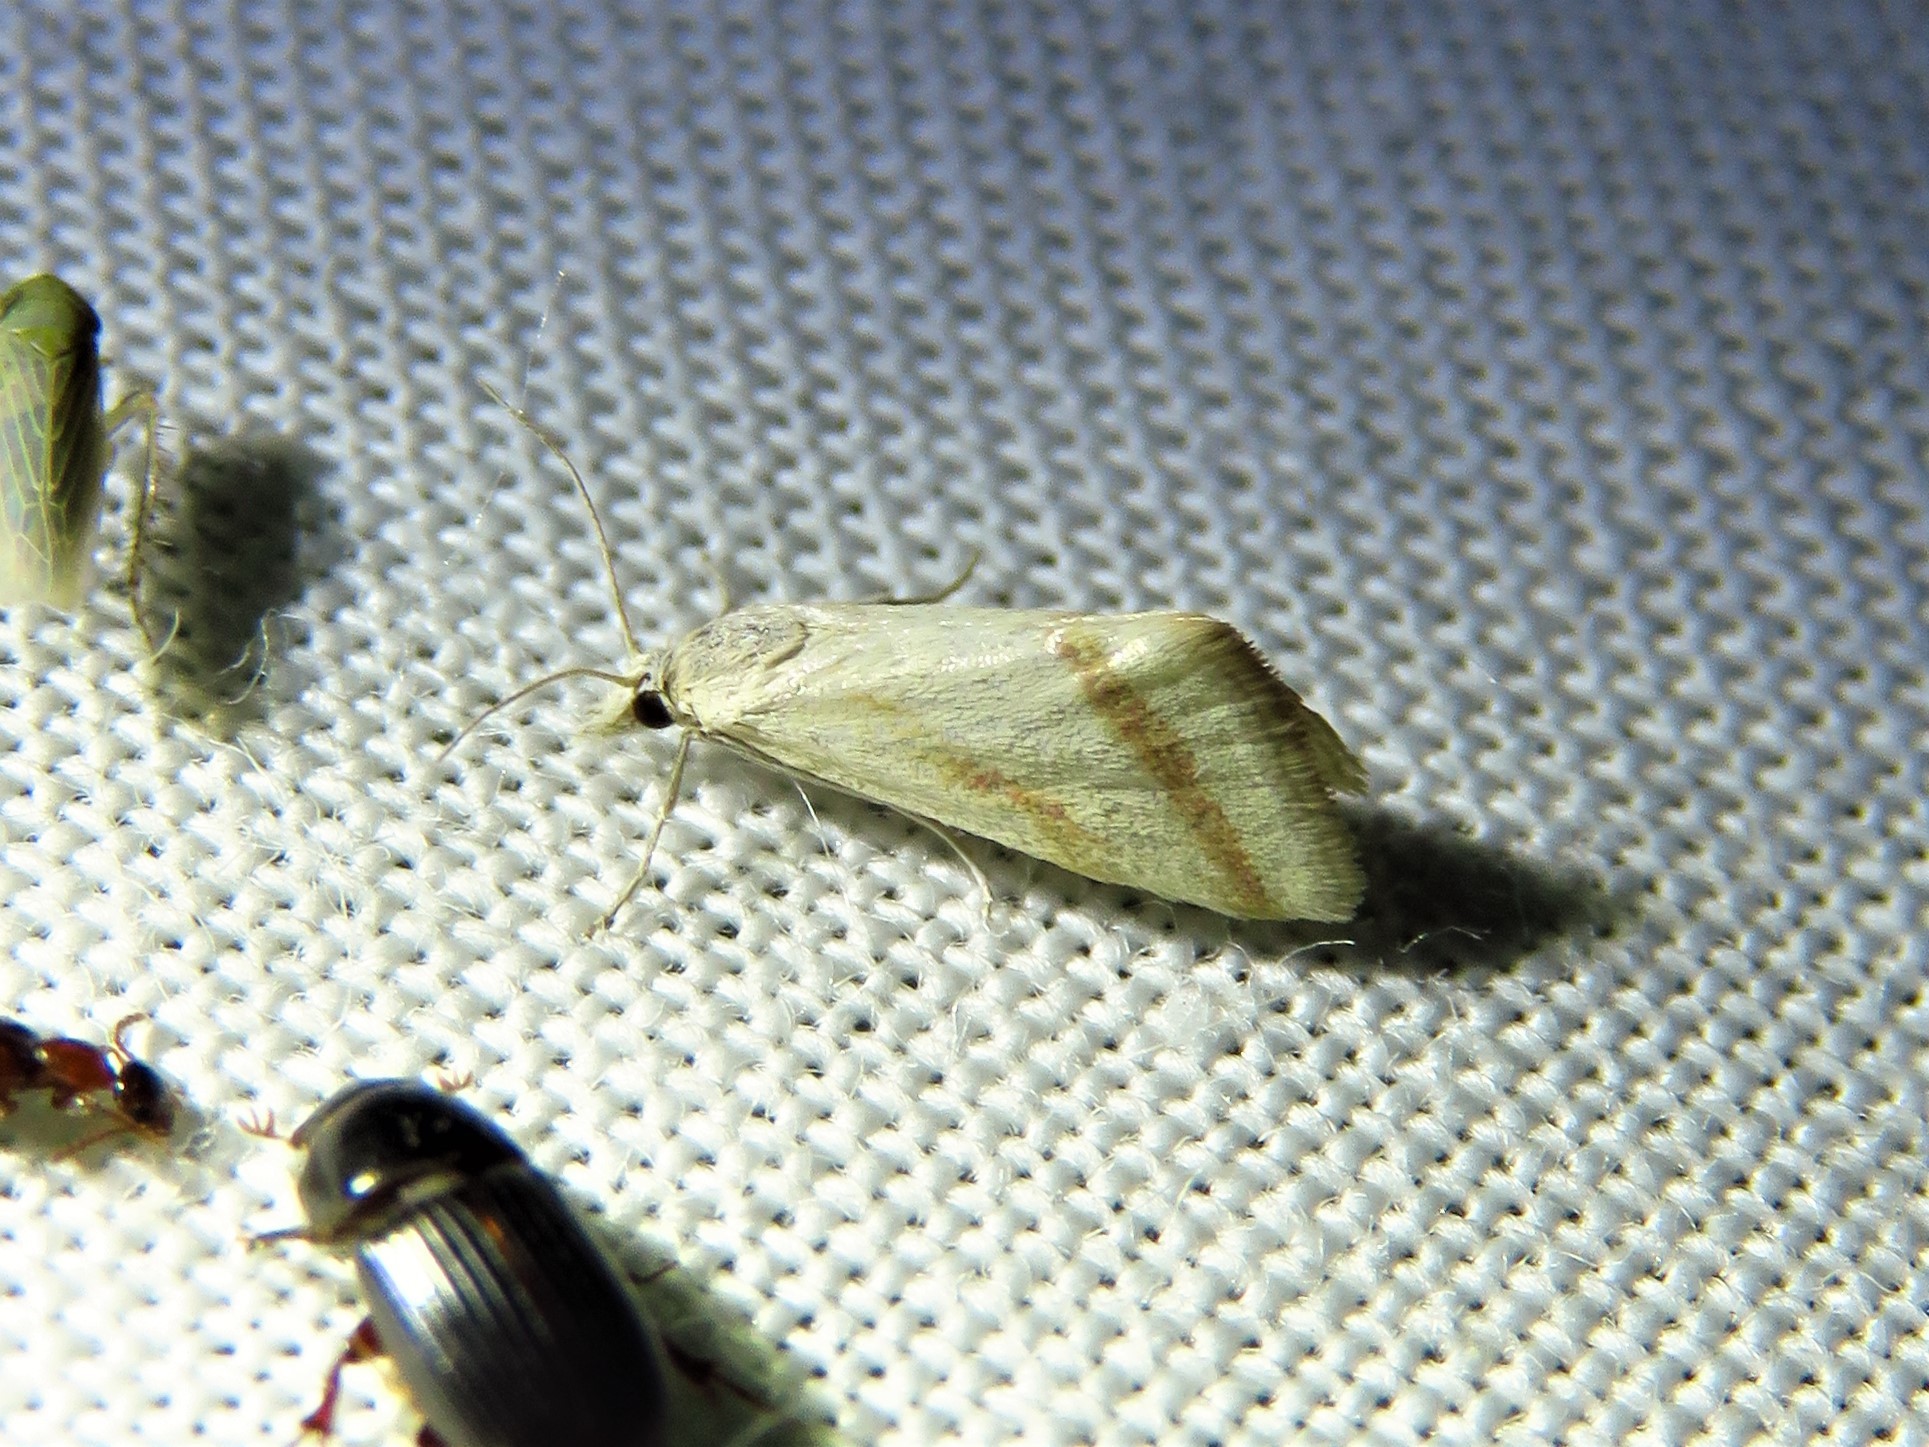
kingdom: Animalia
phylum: Arthropoda
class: Insecta
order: Lepidoptera
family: Crambidae
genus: Microtheoris
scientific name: Microtheoris vibicalis
